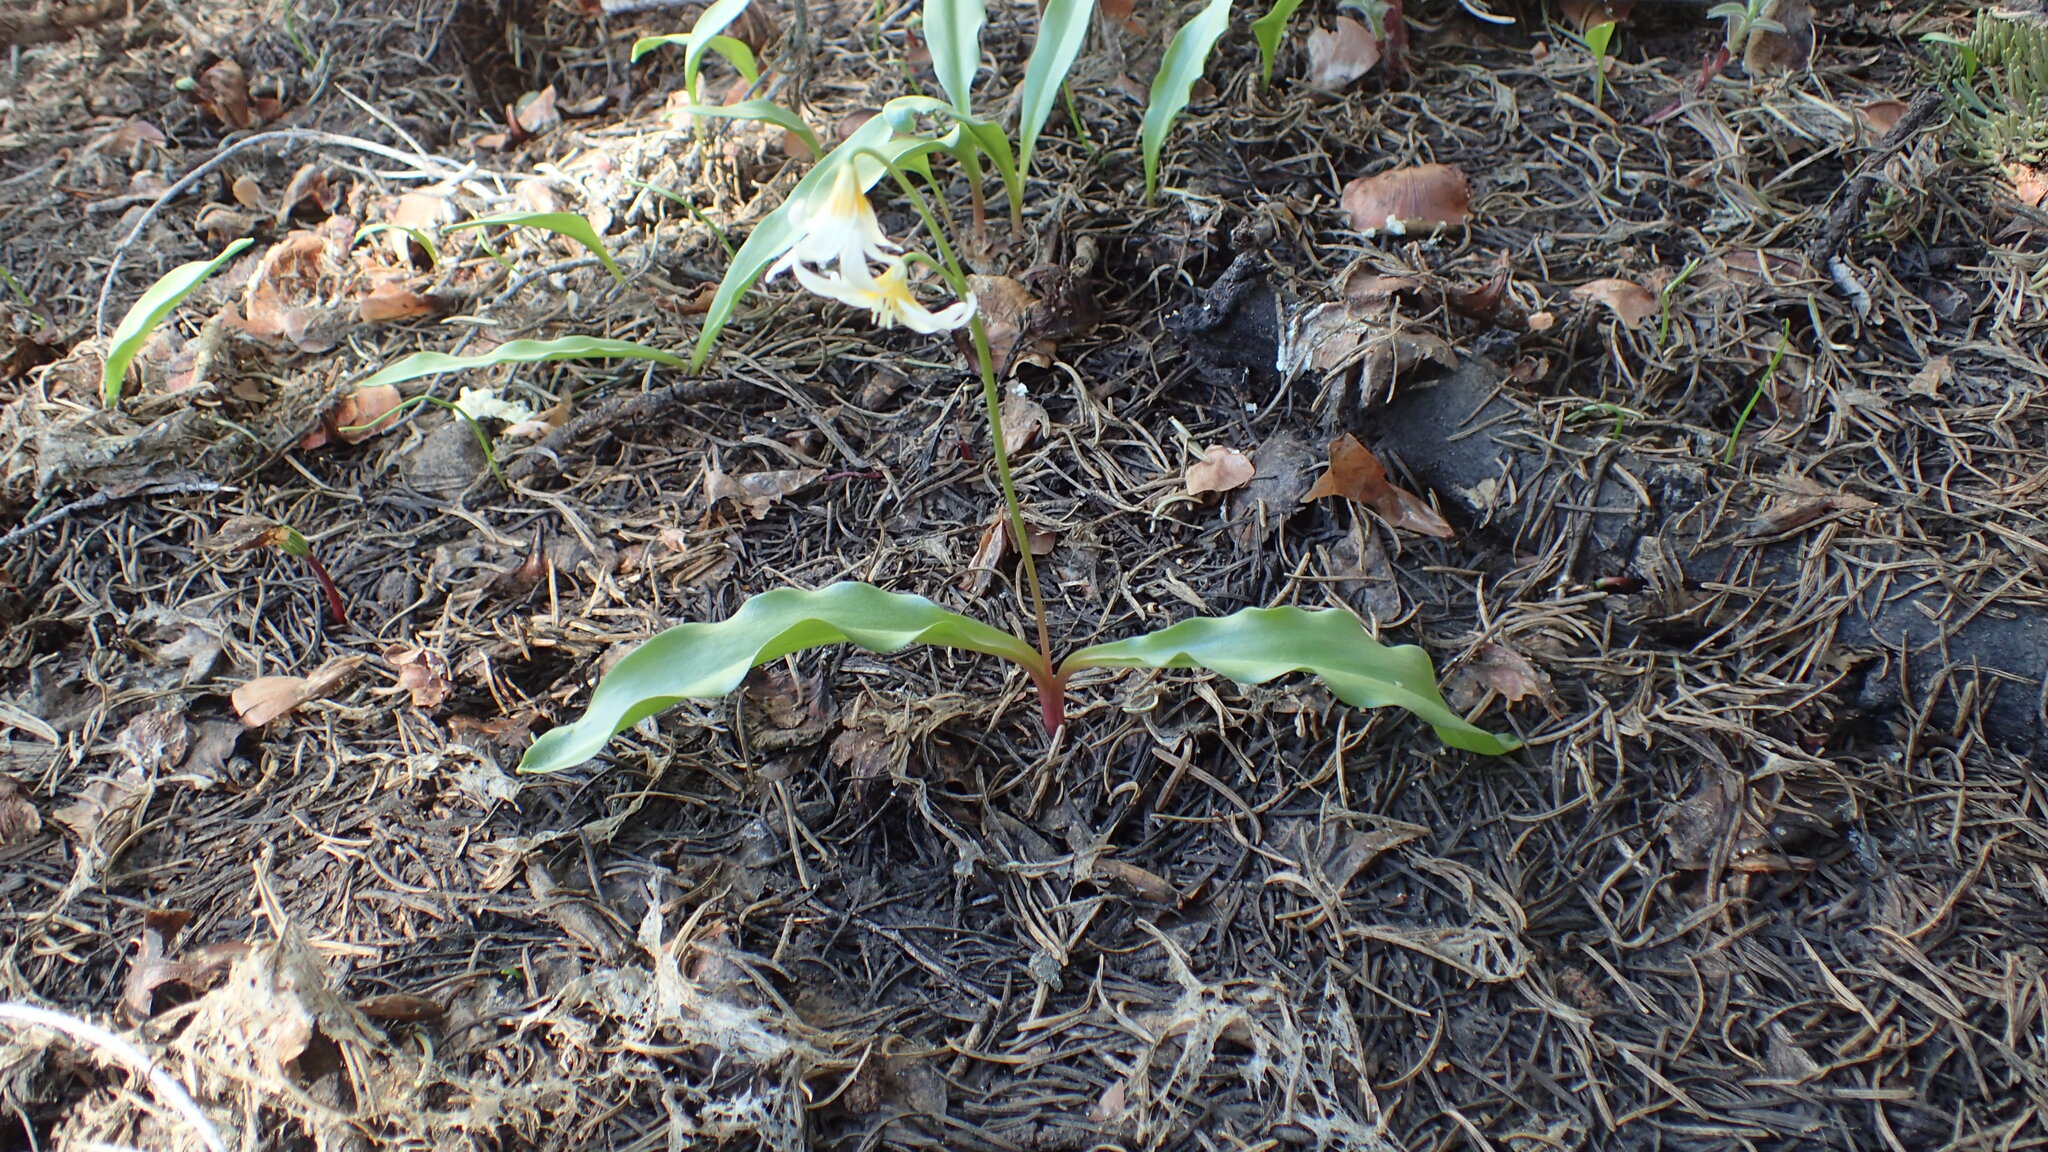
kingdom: Plantae
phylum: Tracheophyta
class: Liliopsida
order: Liliales
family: Liliaceae
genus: Erythronium
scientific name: Erythronium purpurascens
